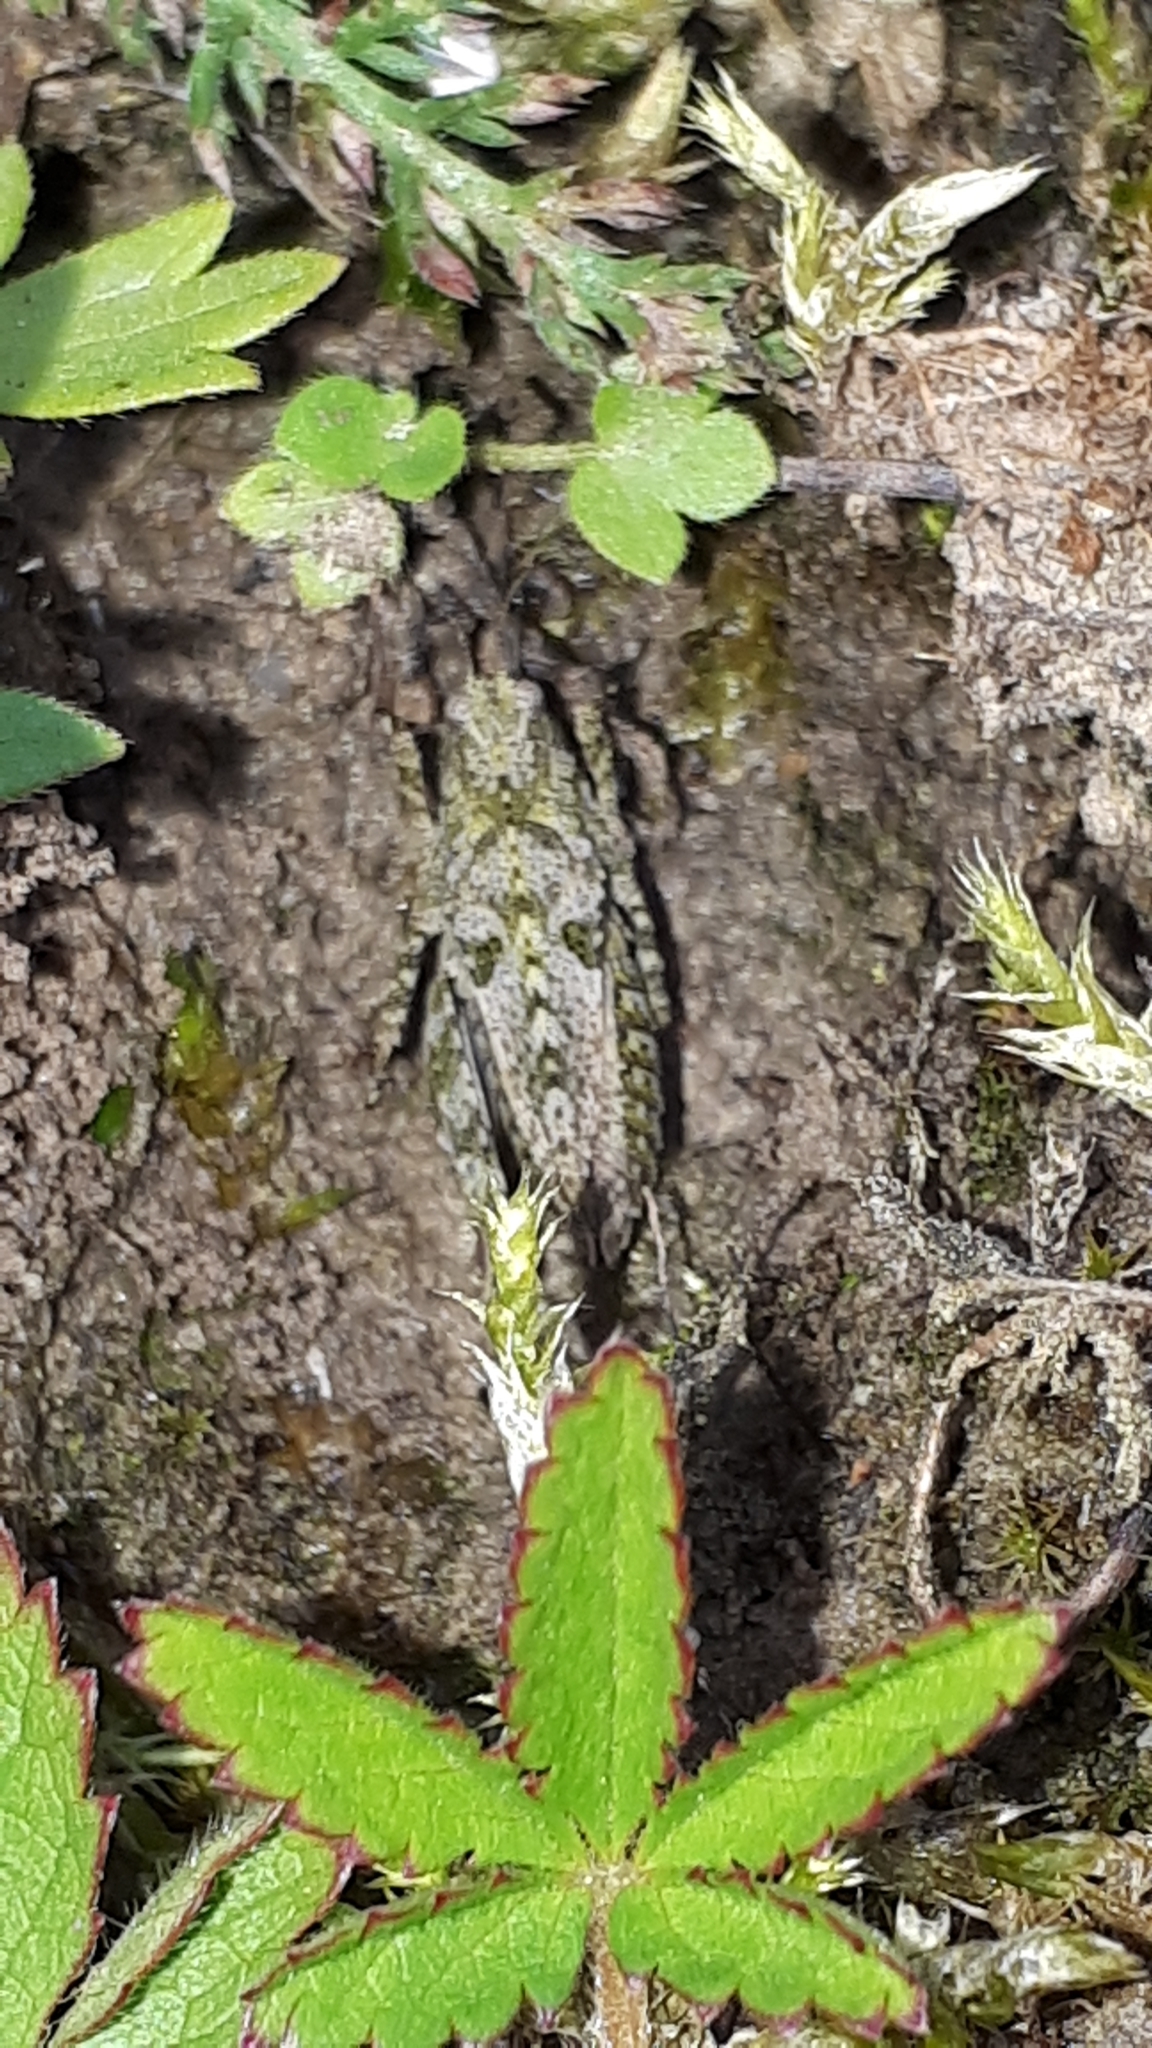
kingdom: Animalia
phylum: Arthropoda
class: Insecta
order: Orthoptera
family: Tetrigidae
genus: Tetrix
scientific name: Tetrix tenuicornis
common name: Long-horned groundhopper
